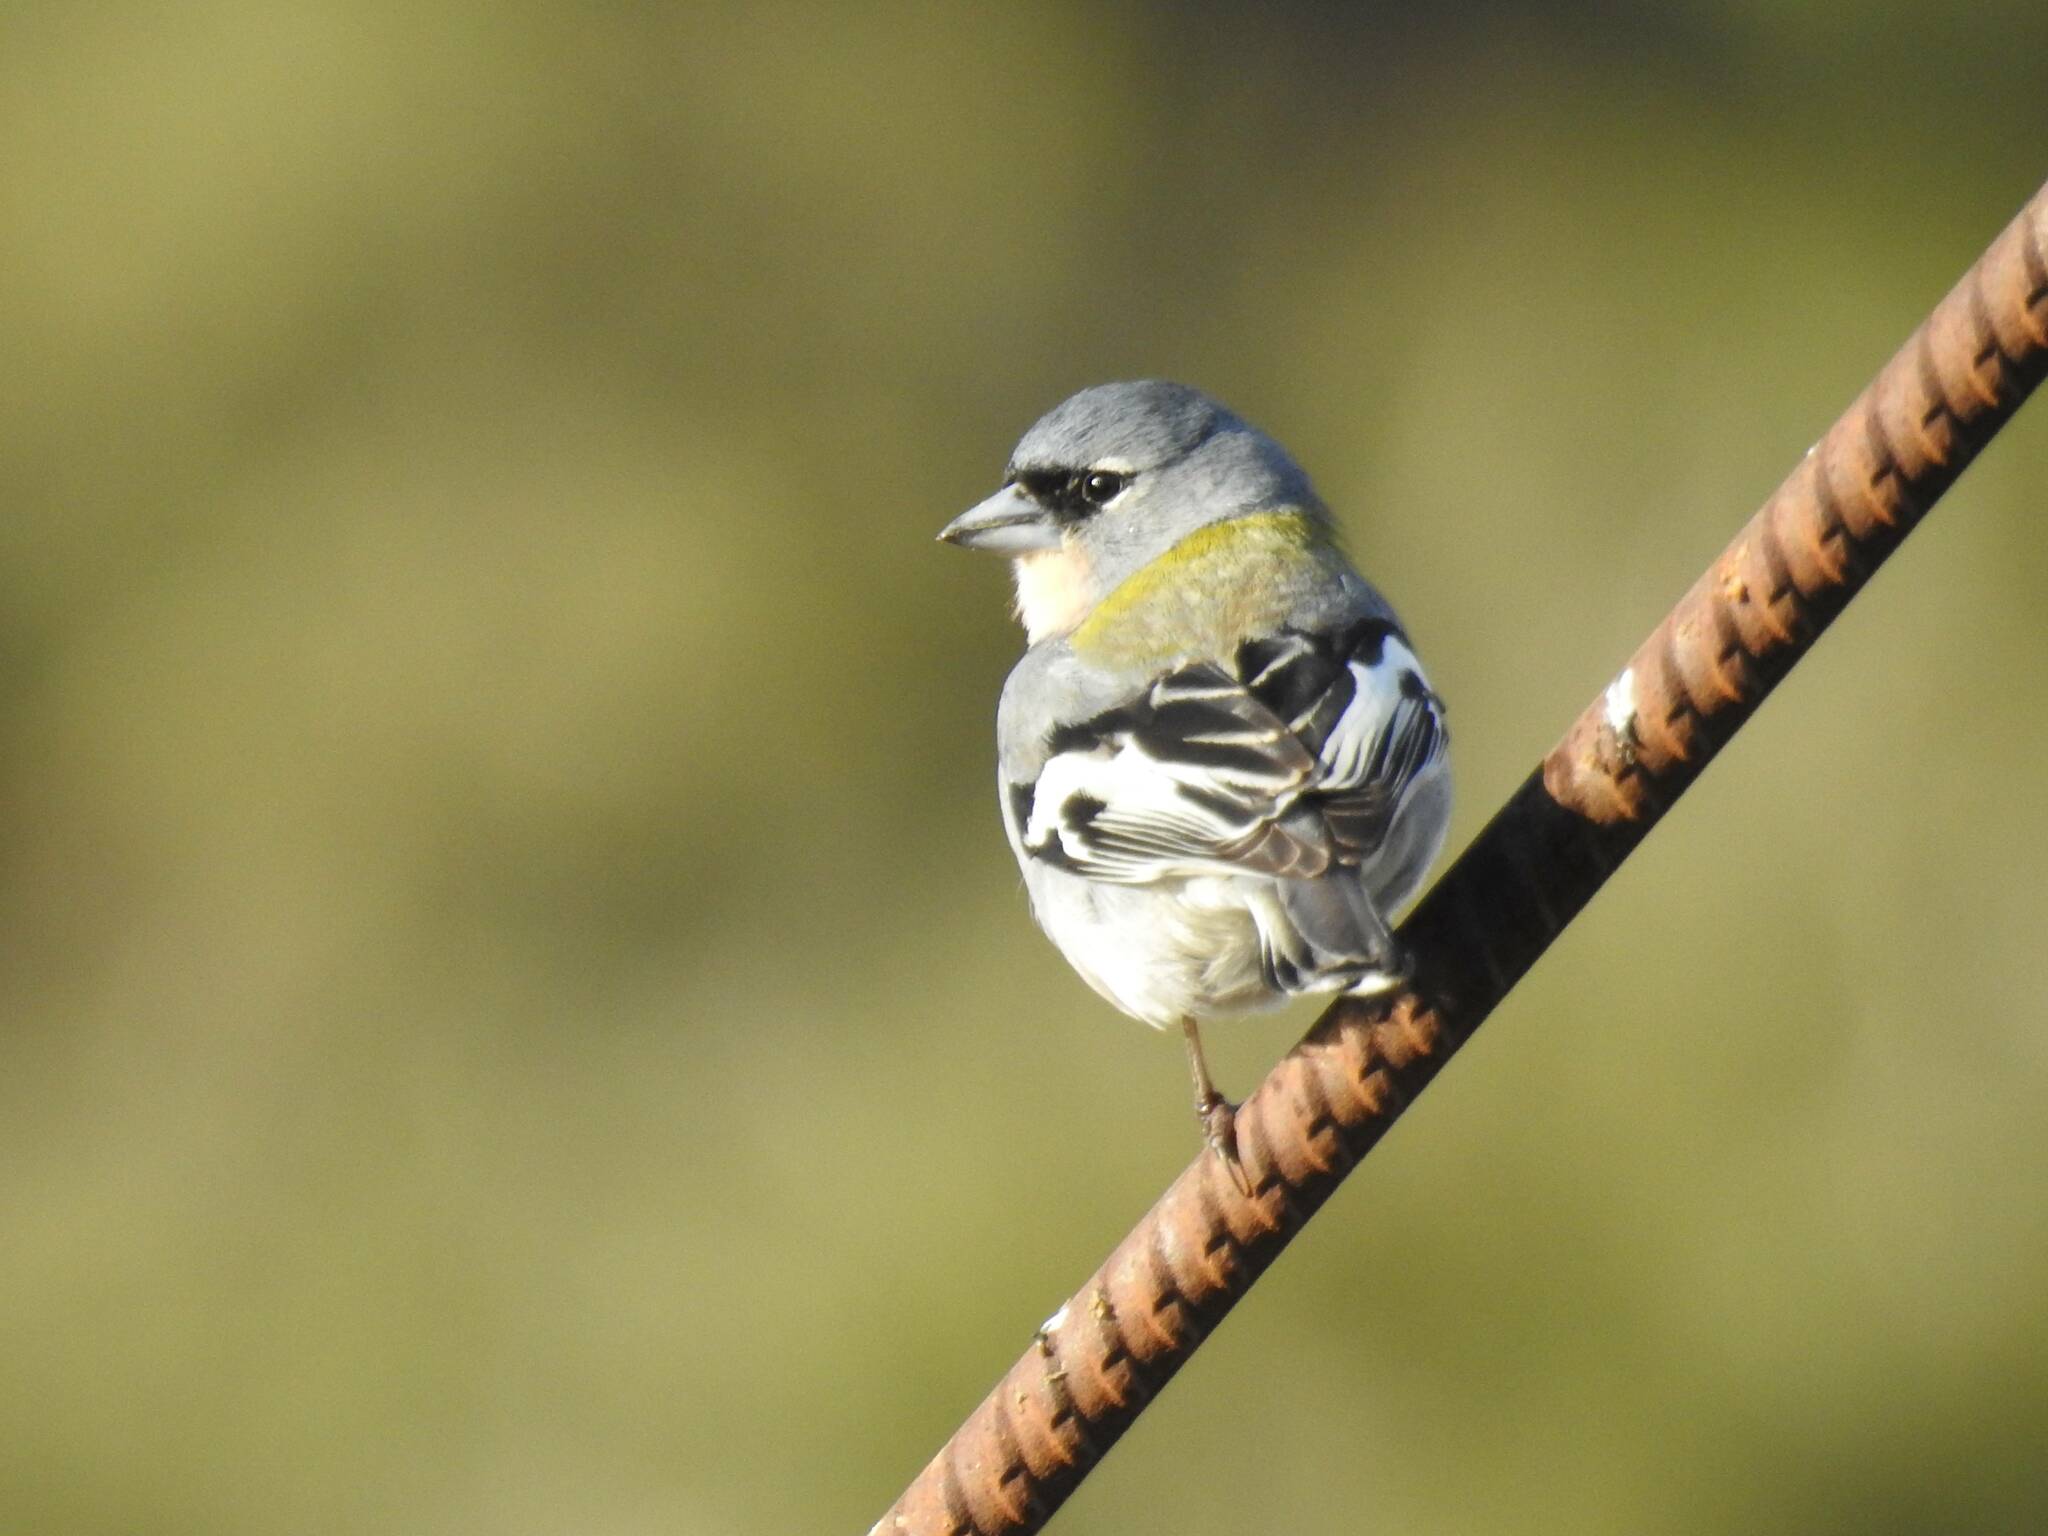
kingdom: Animalia
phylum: Chordata
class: Aves
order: Passeriformes
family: Fringillidae
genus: Fringilla
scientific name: Fringilla spodiogenys
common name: African chaffinch
